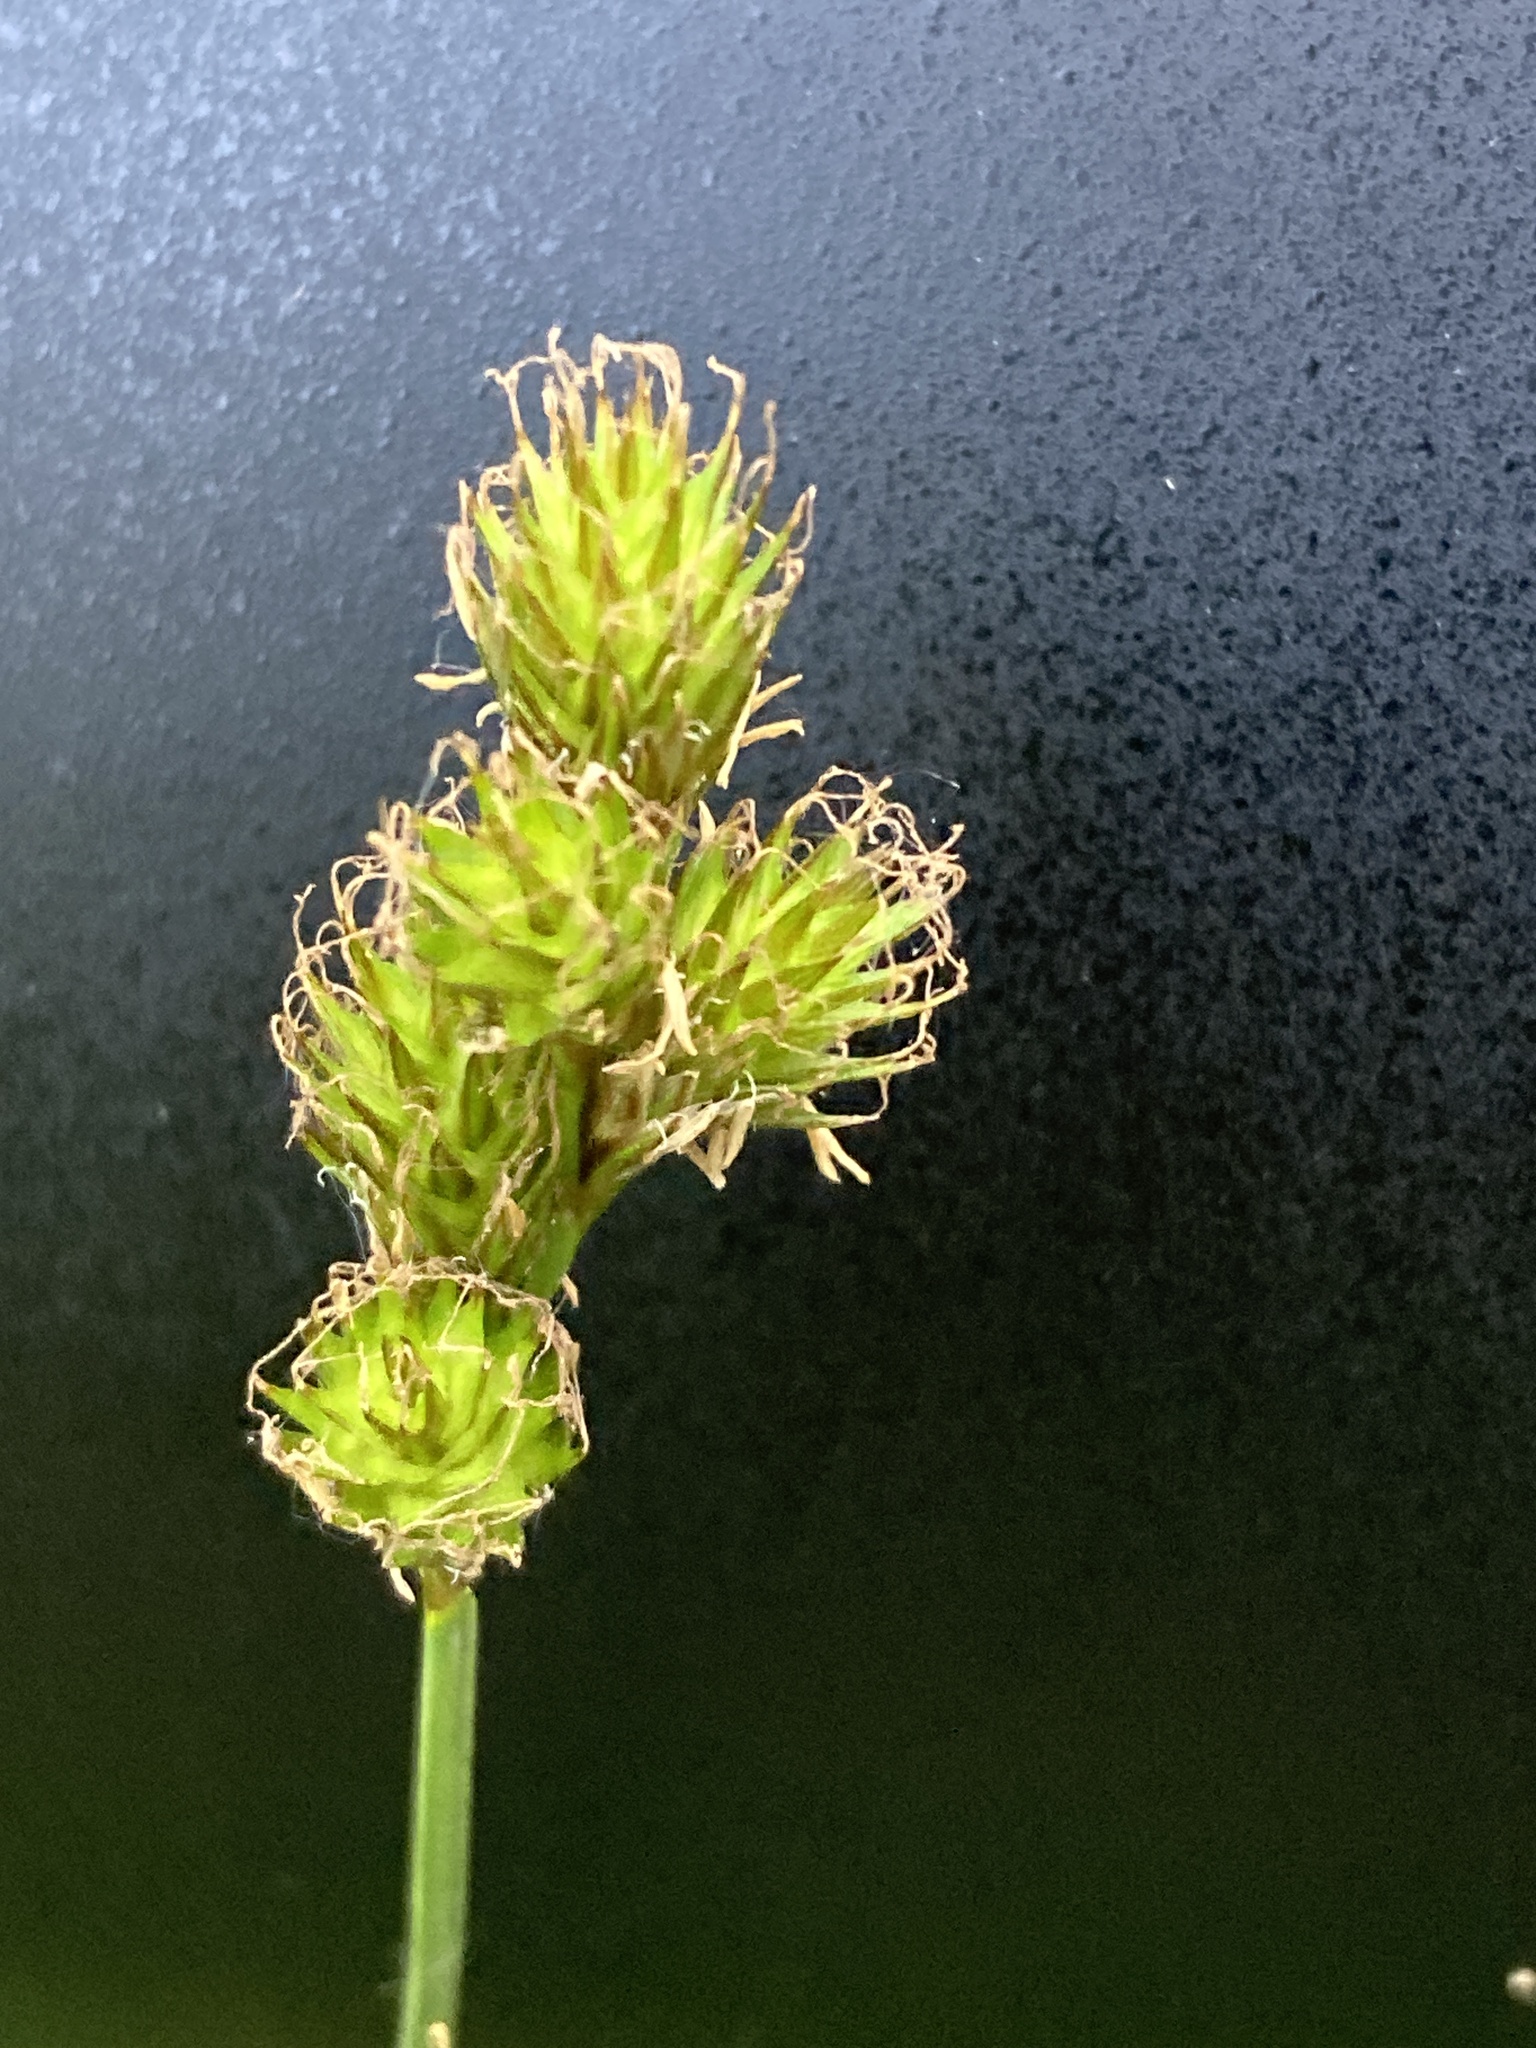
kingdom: Plantae
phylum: Tracheophyta
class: Liliopsida
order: Poales
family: Cyperaceae
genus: Carex
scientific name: Carex leporina
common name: Oval sedge
